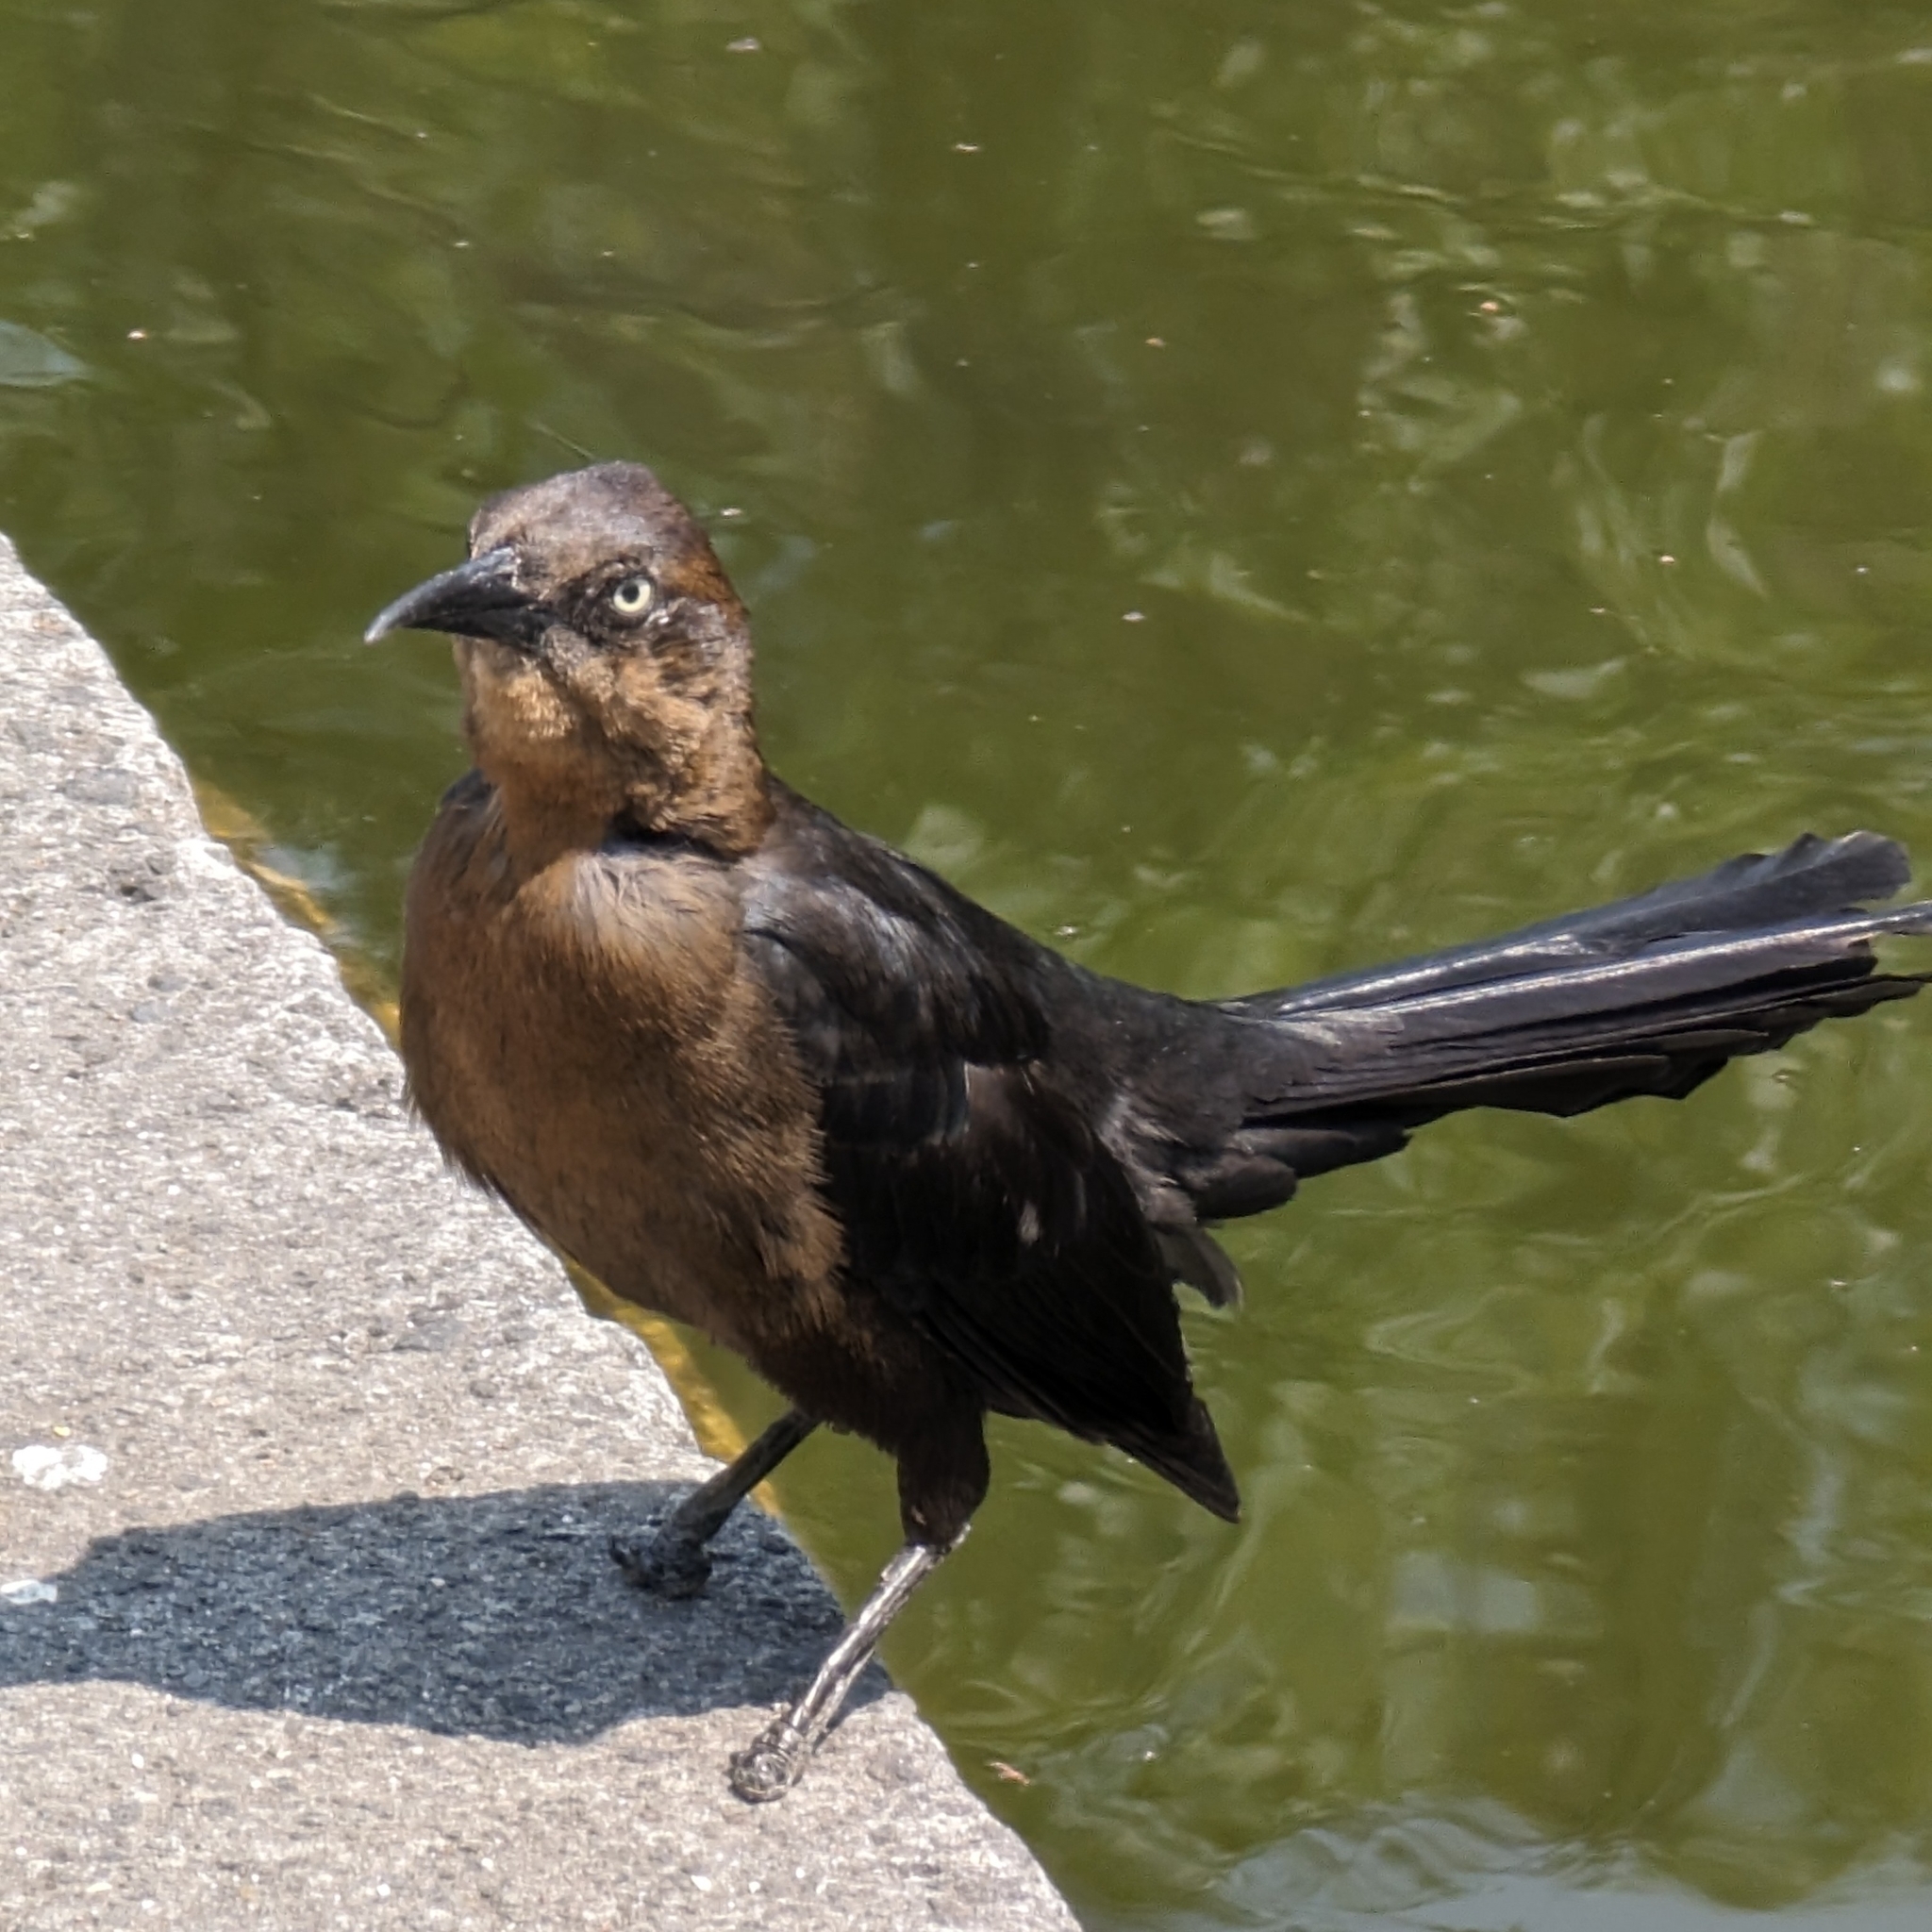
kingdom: Animalia
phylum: Chordata
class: Aves
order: Passeriformes
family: Icteridae
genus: Quiscalus
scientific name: Quiscalus mexicanus
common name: Great-tailed grackle
